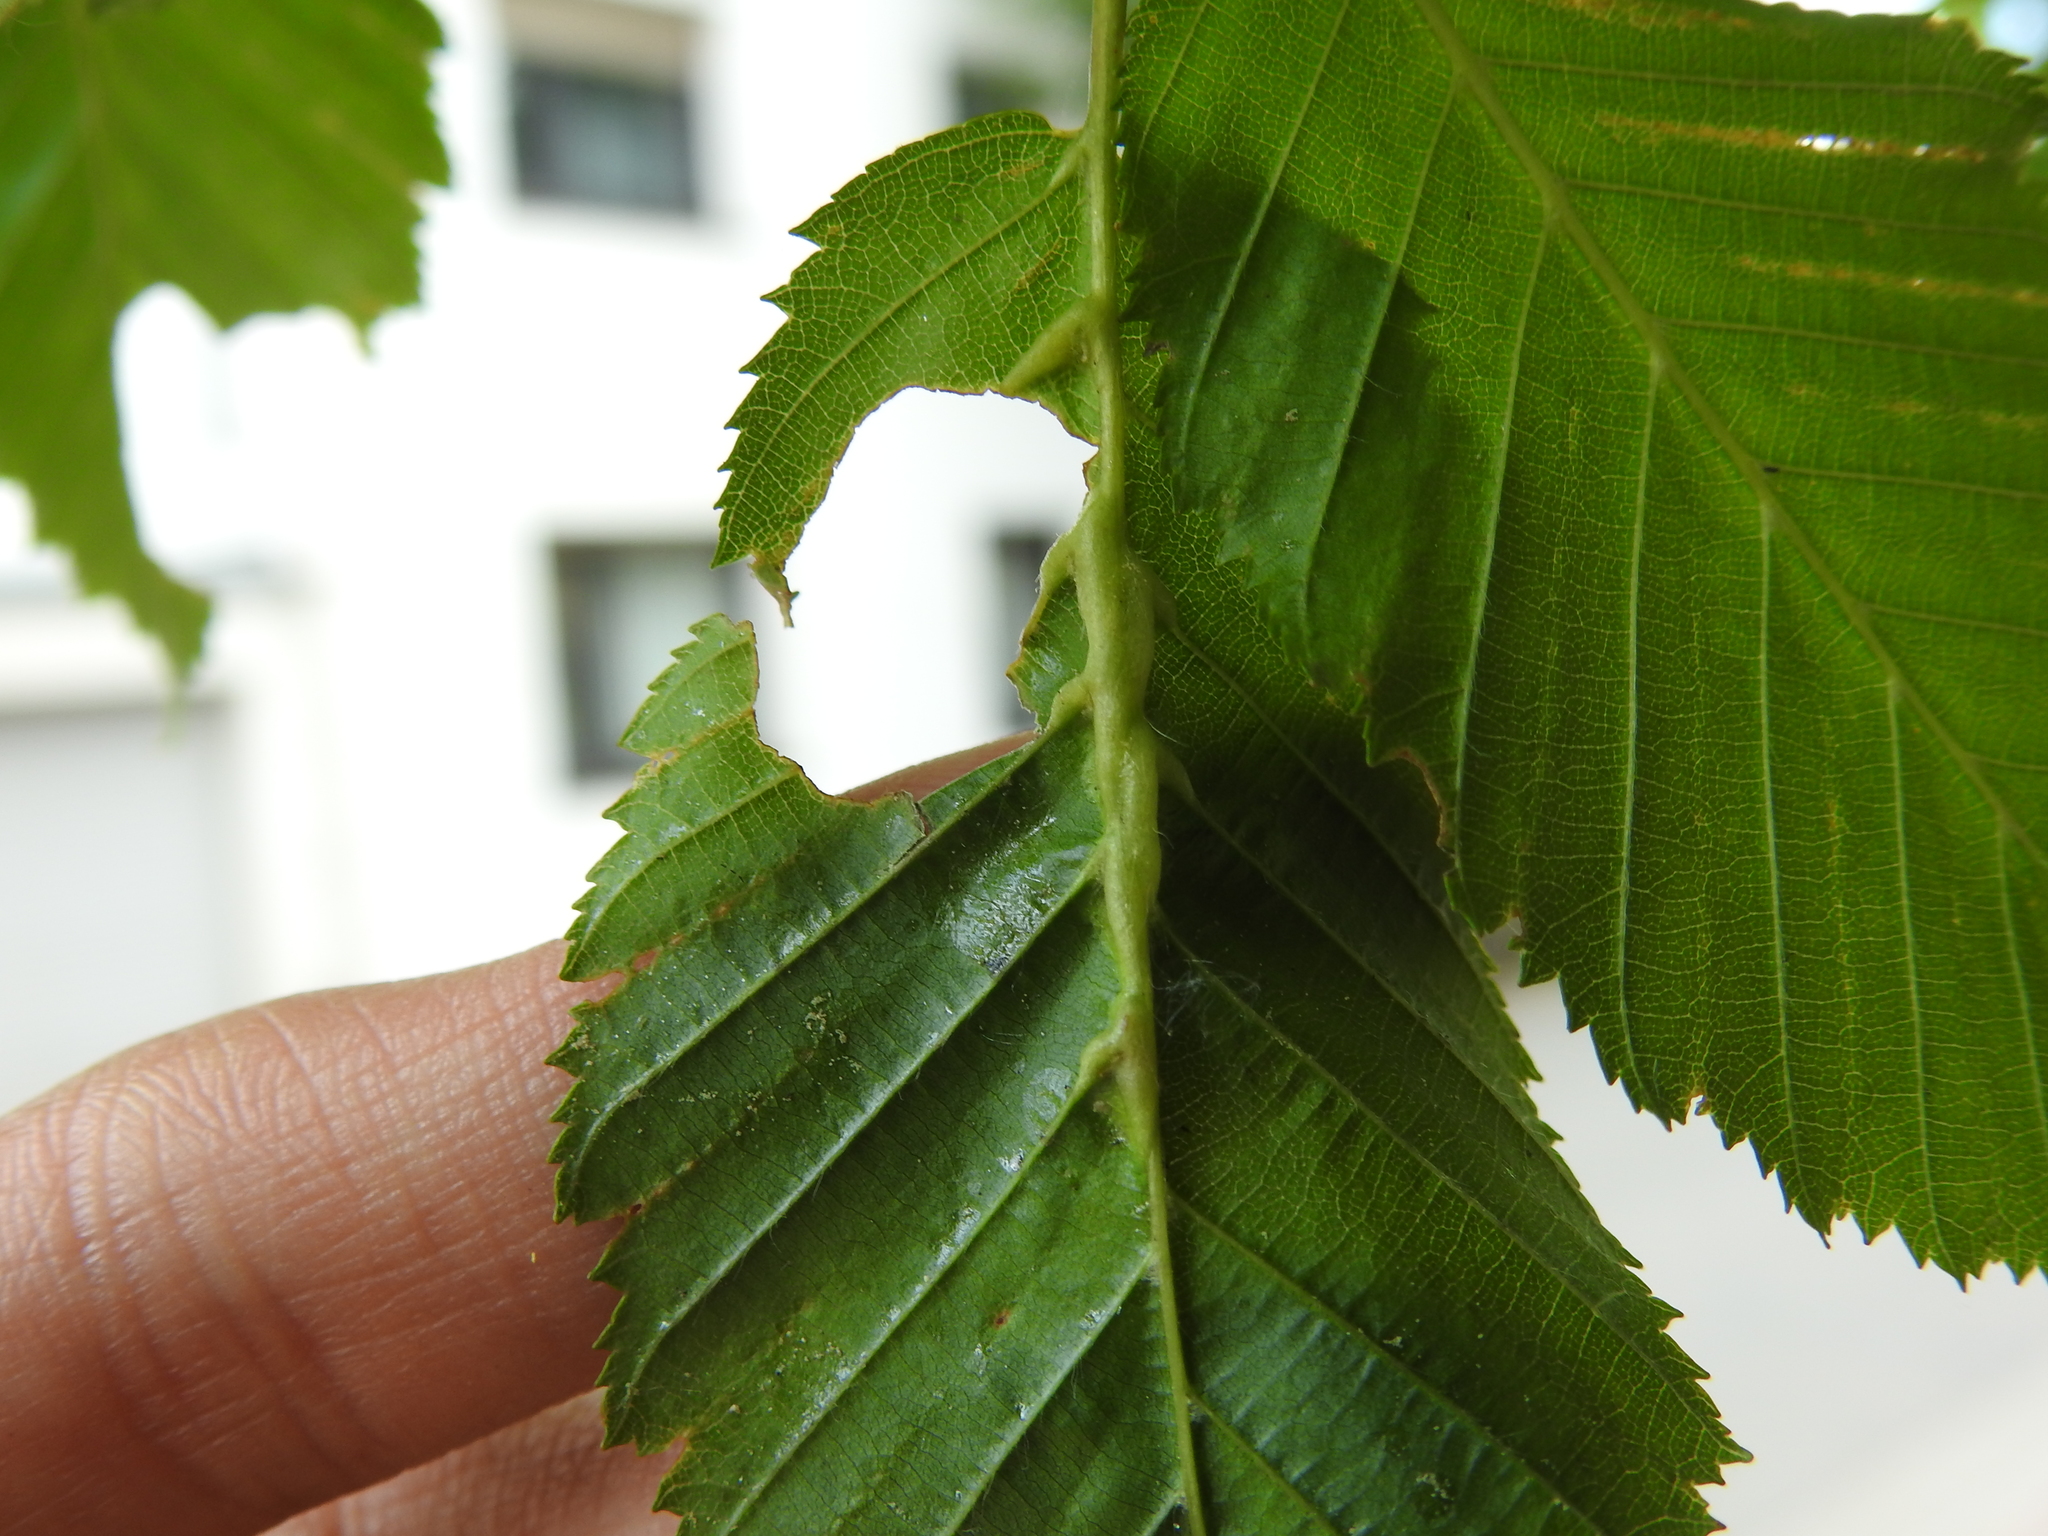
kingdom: Animalia
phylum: Arthropoda
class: Insecta
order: Diptera
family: Cecidomyiidae
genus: Zygiobia
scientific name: Zygiobia carpini
